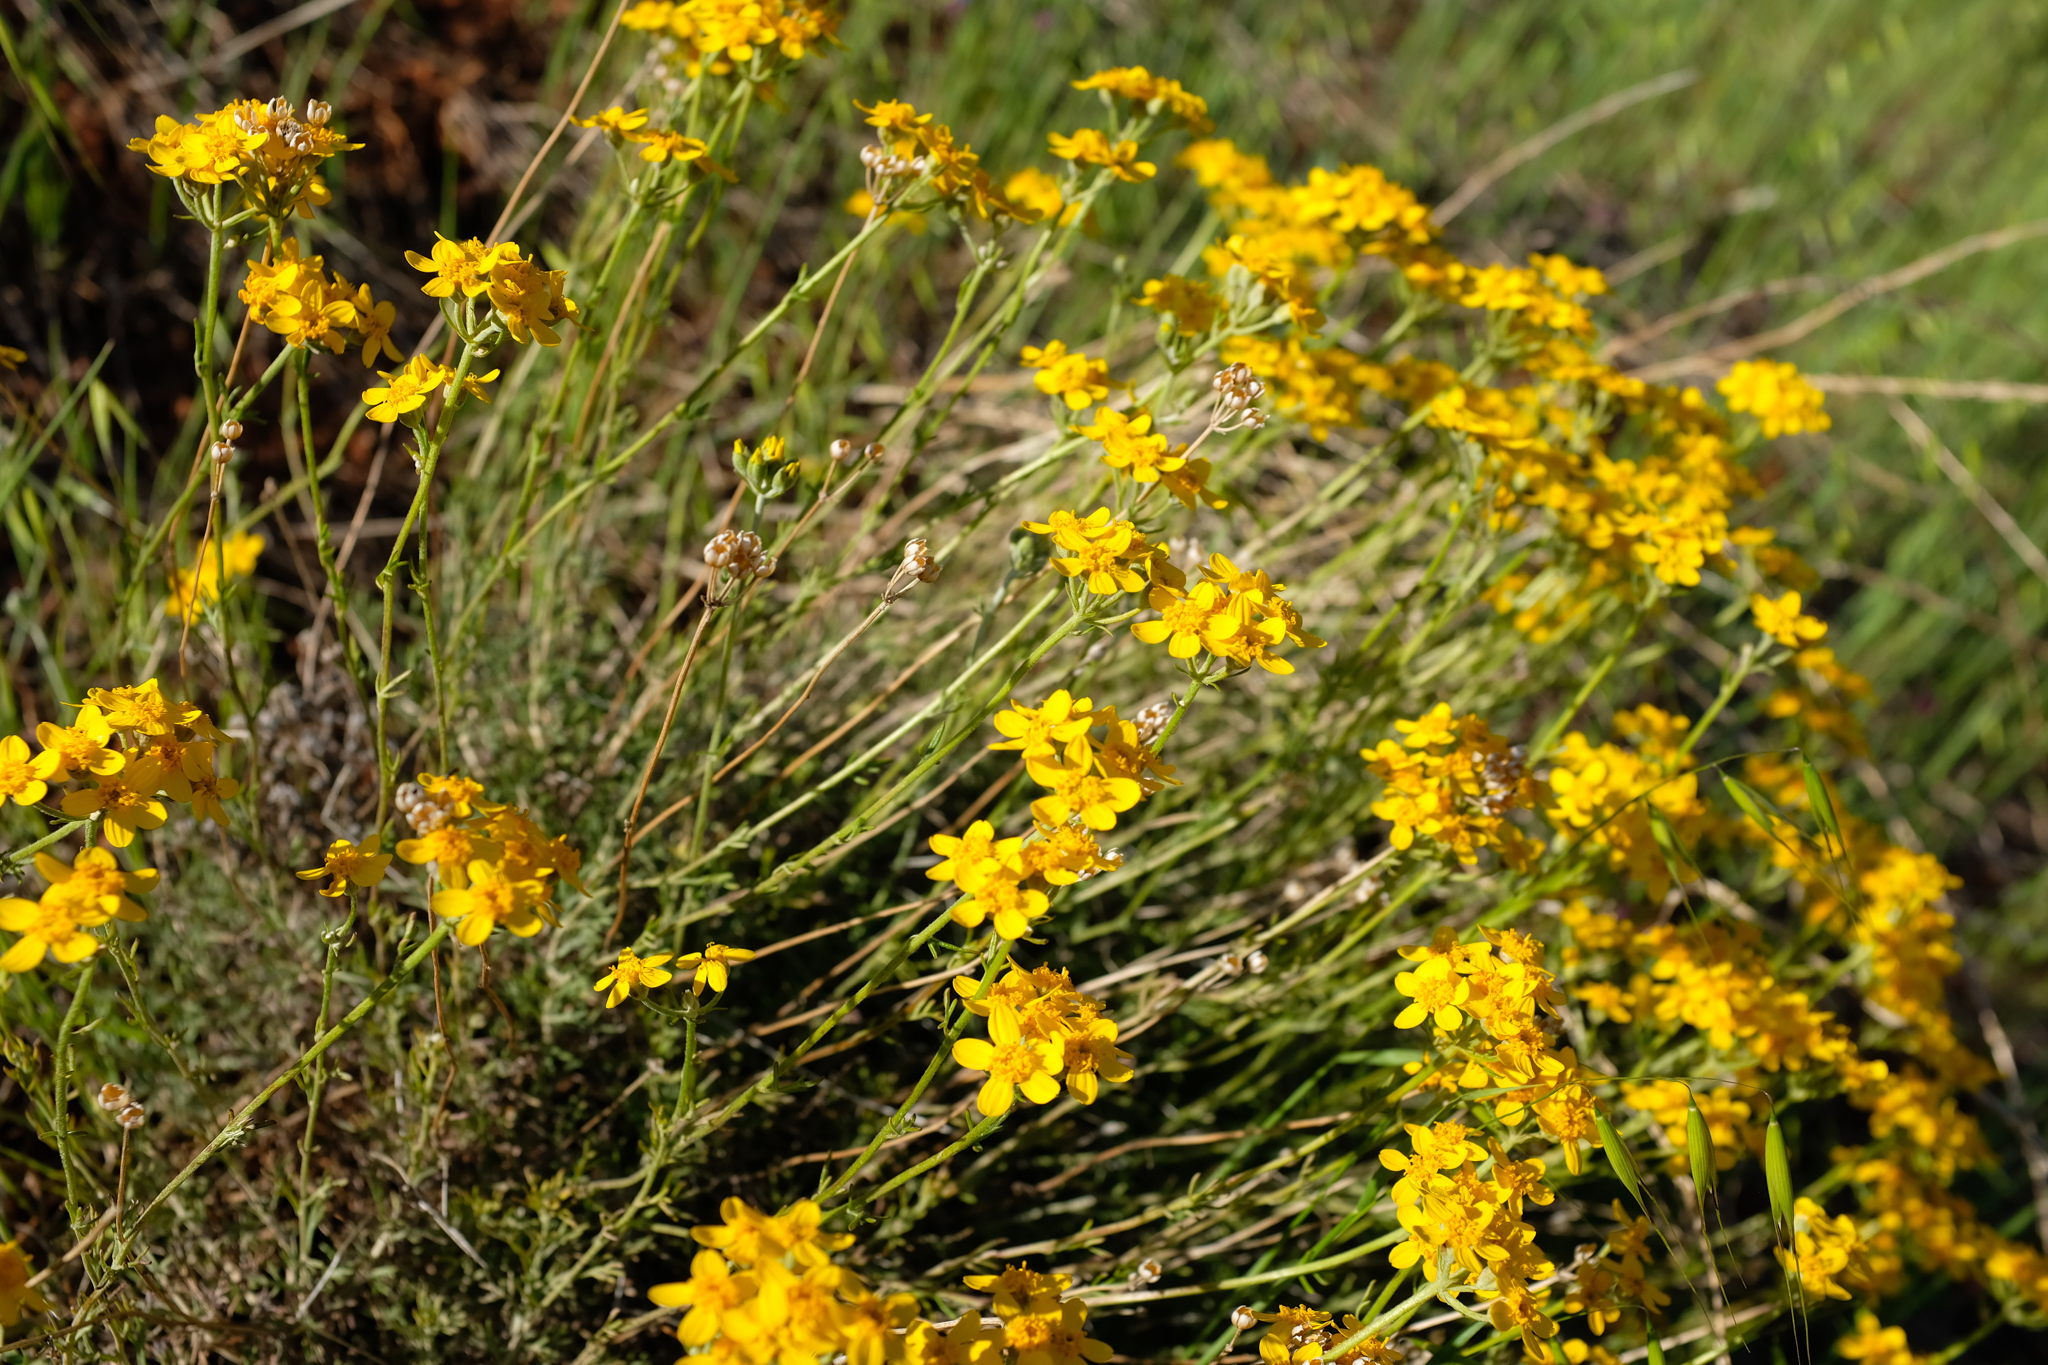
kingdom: Plantae
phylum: Tracheophyta
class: Magnoliopsida
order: Asterales
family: Asteraceae
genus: Eriophyllum
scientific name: Eriophyllum confertiflorum
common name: Golden-yarrow
